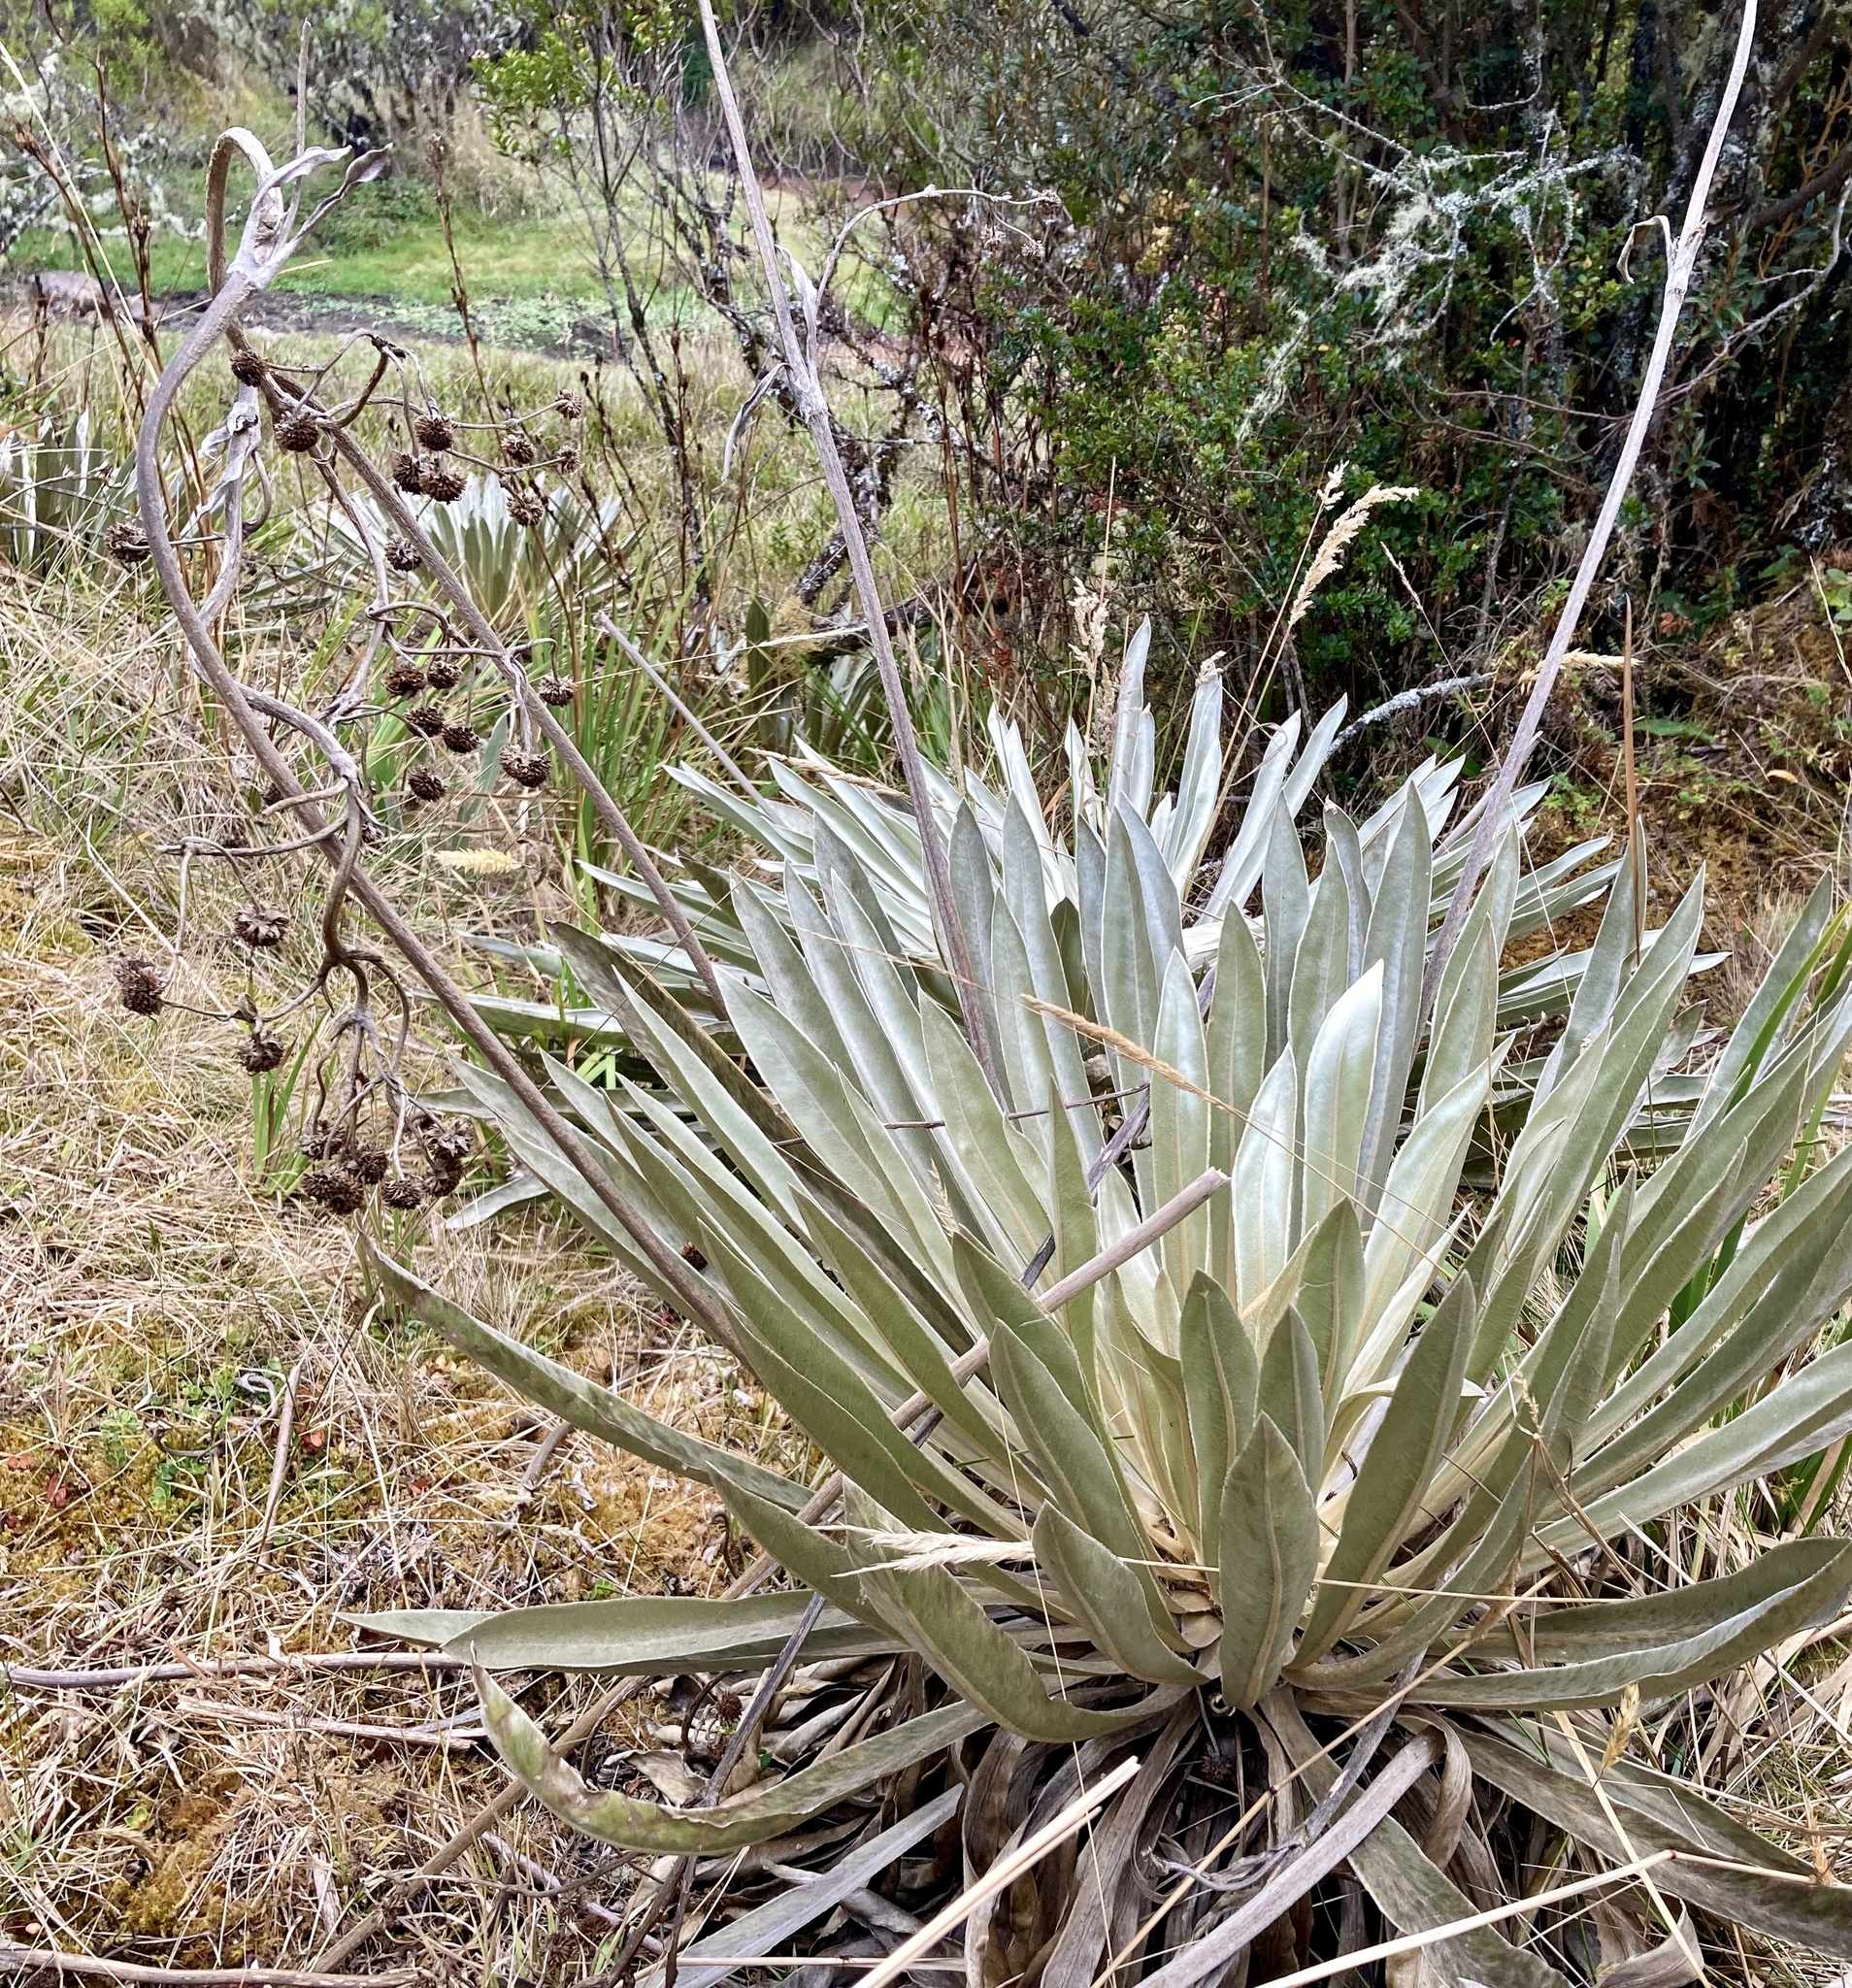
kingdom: Plantae
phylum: Tracheophyta
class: Magnoliopsida
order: Asterales
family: Asteraceae
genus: Espeletia
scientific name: Espeletia boyacensis
